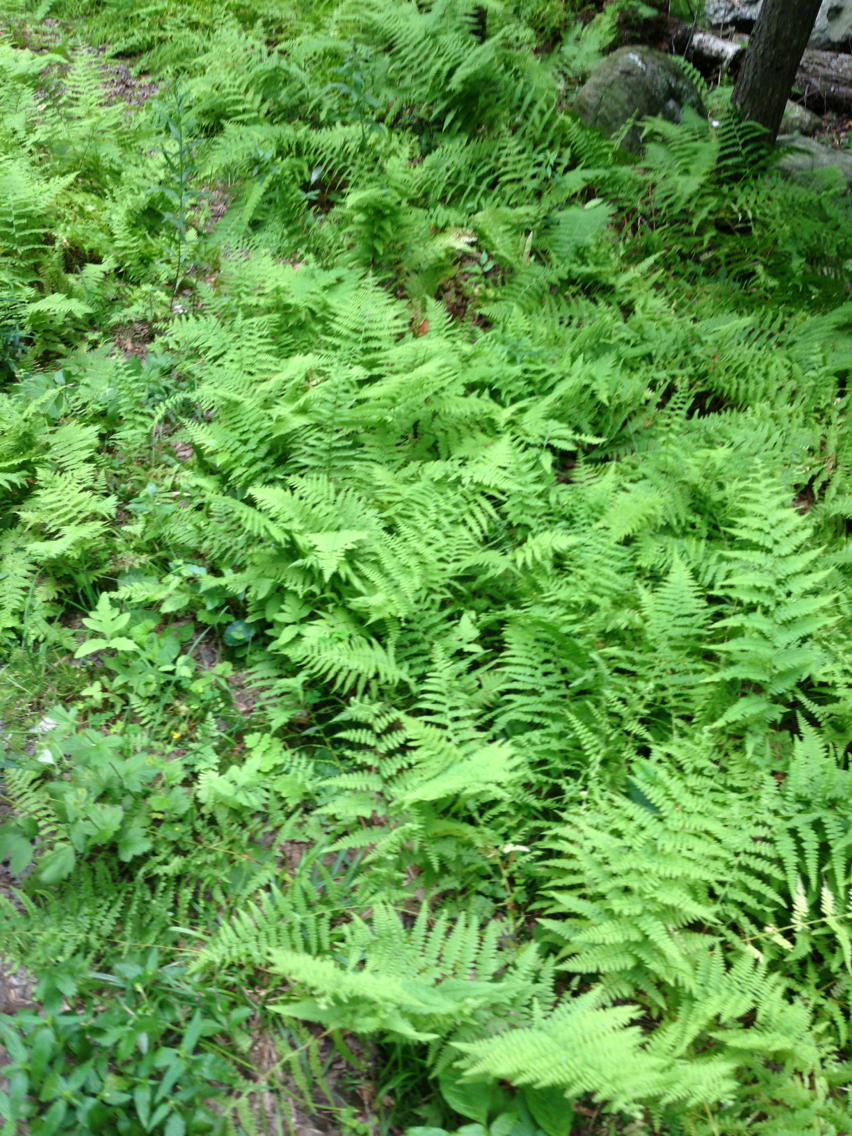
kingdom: Plantae
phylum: Tracheophyta
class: Polypodiopsida
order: Polypodiales
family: Dennstaedtiaceae
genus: Sitobolium
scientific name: Sitobolium punctilobum
